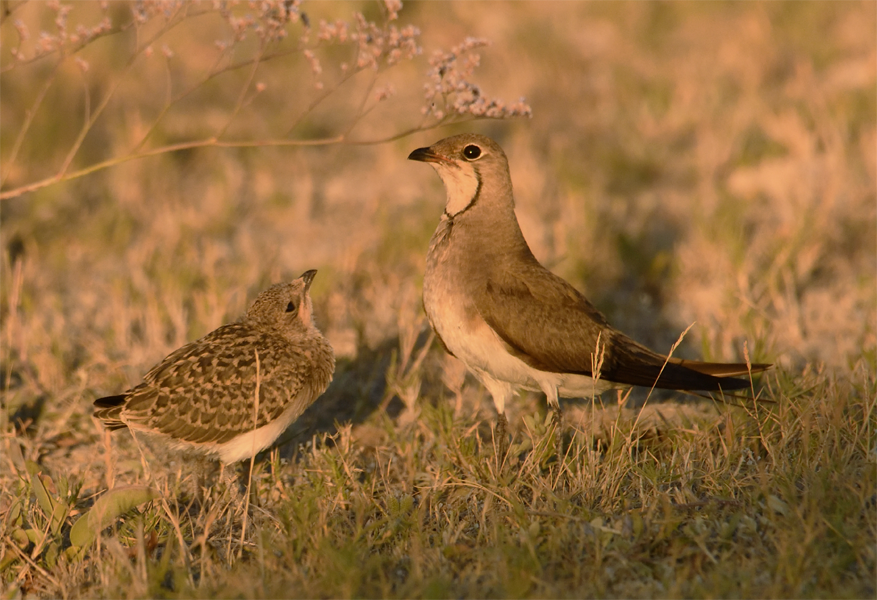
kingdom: Animalia
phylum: Chordata
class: Aves
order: Charadriiformes
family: Glareolidae
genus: Glareola
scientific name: Glareola pratincola
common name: Collared pratincole
